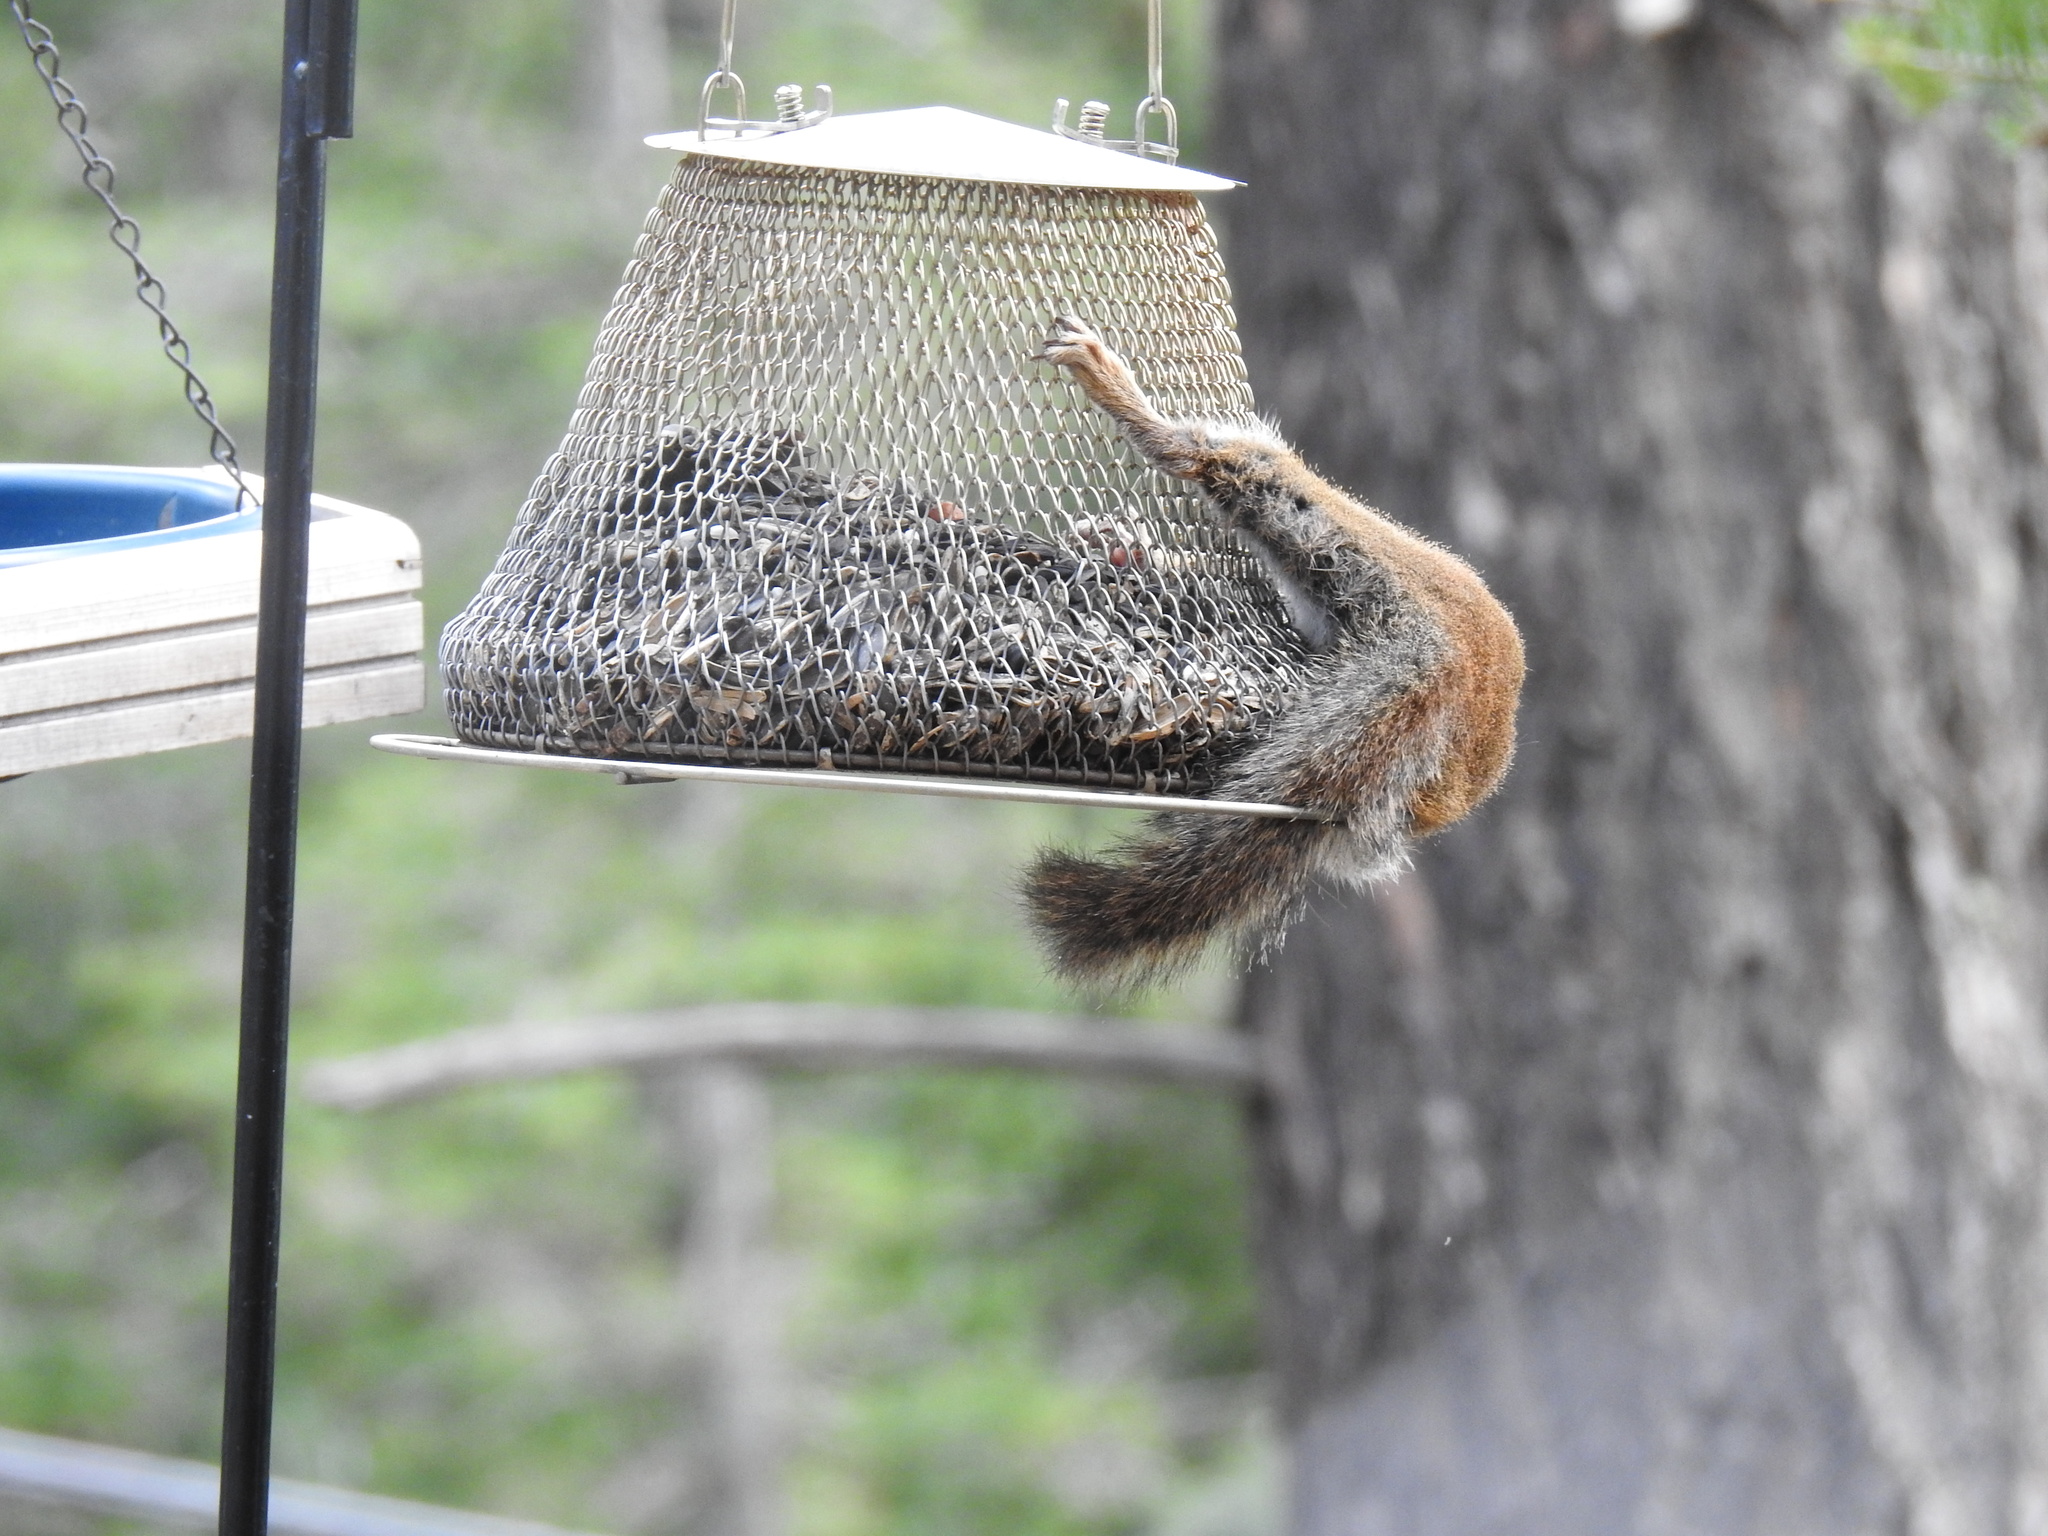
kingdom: Animalia
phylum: Chordata
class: Mammalia
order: Rodentia
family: Sciuridae
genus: Tamiasciurus
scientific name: Tamiasciurus hudsonicus
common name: Red squirrel
